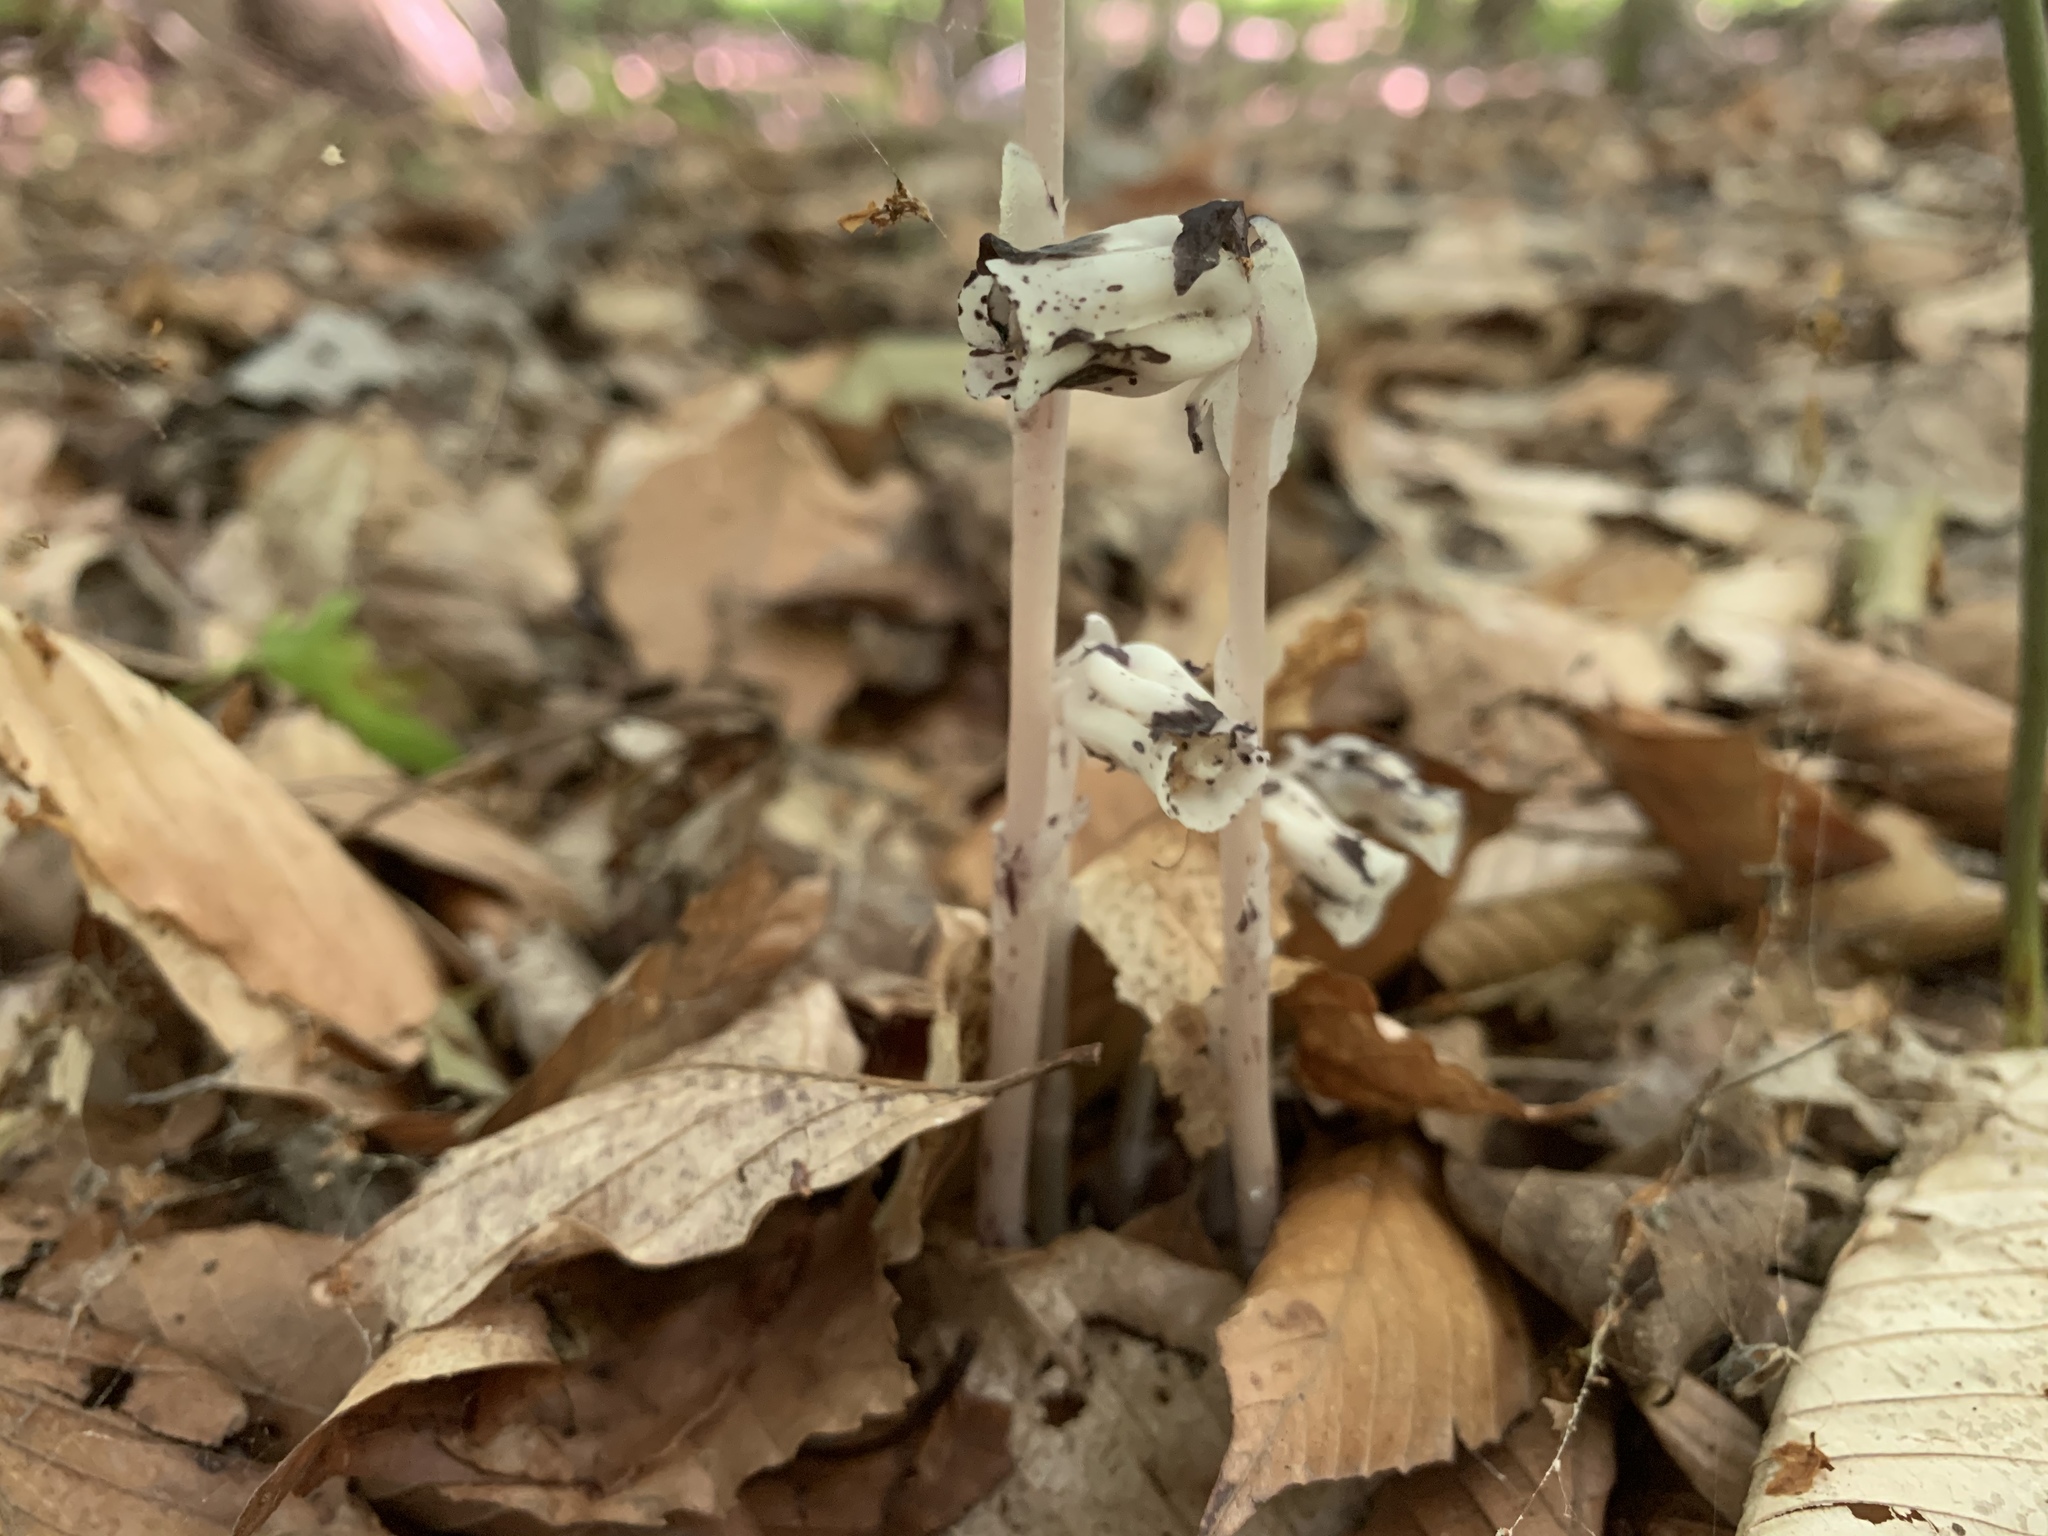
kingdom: Plantae
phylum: Tracheophyta
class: Magnoliopsida
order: Ericales
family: Ericaceae
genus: Monotropa
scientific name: Monotropa uniflora
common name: Convulsion root
